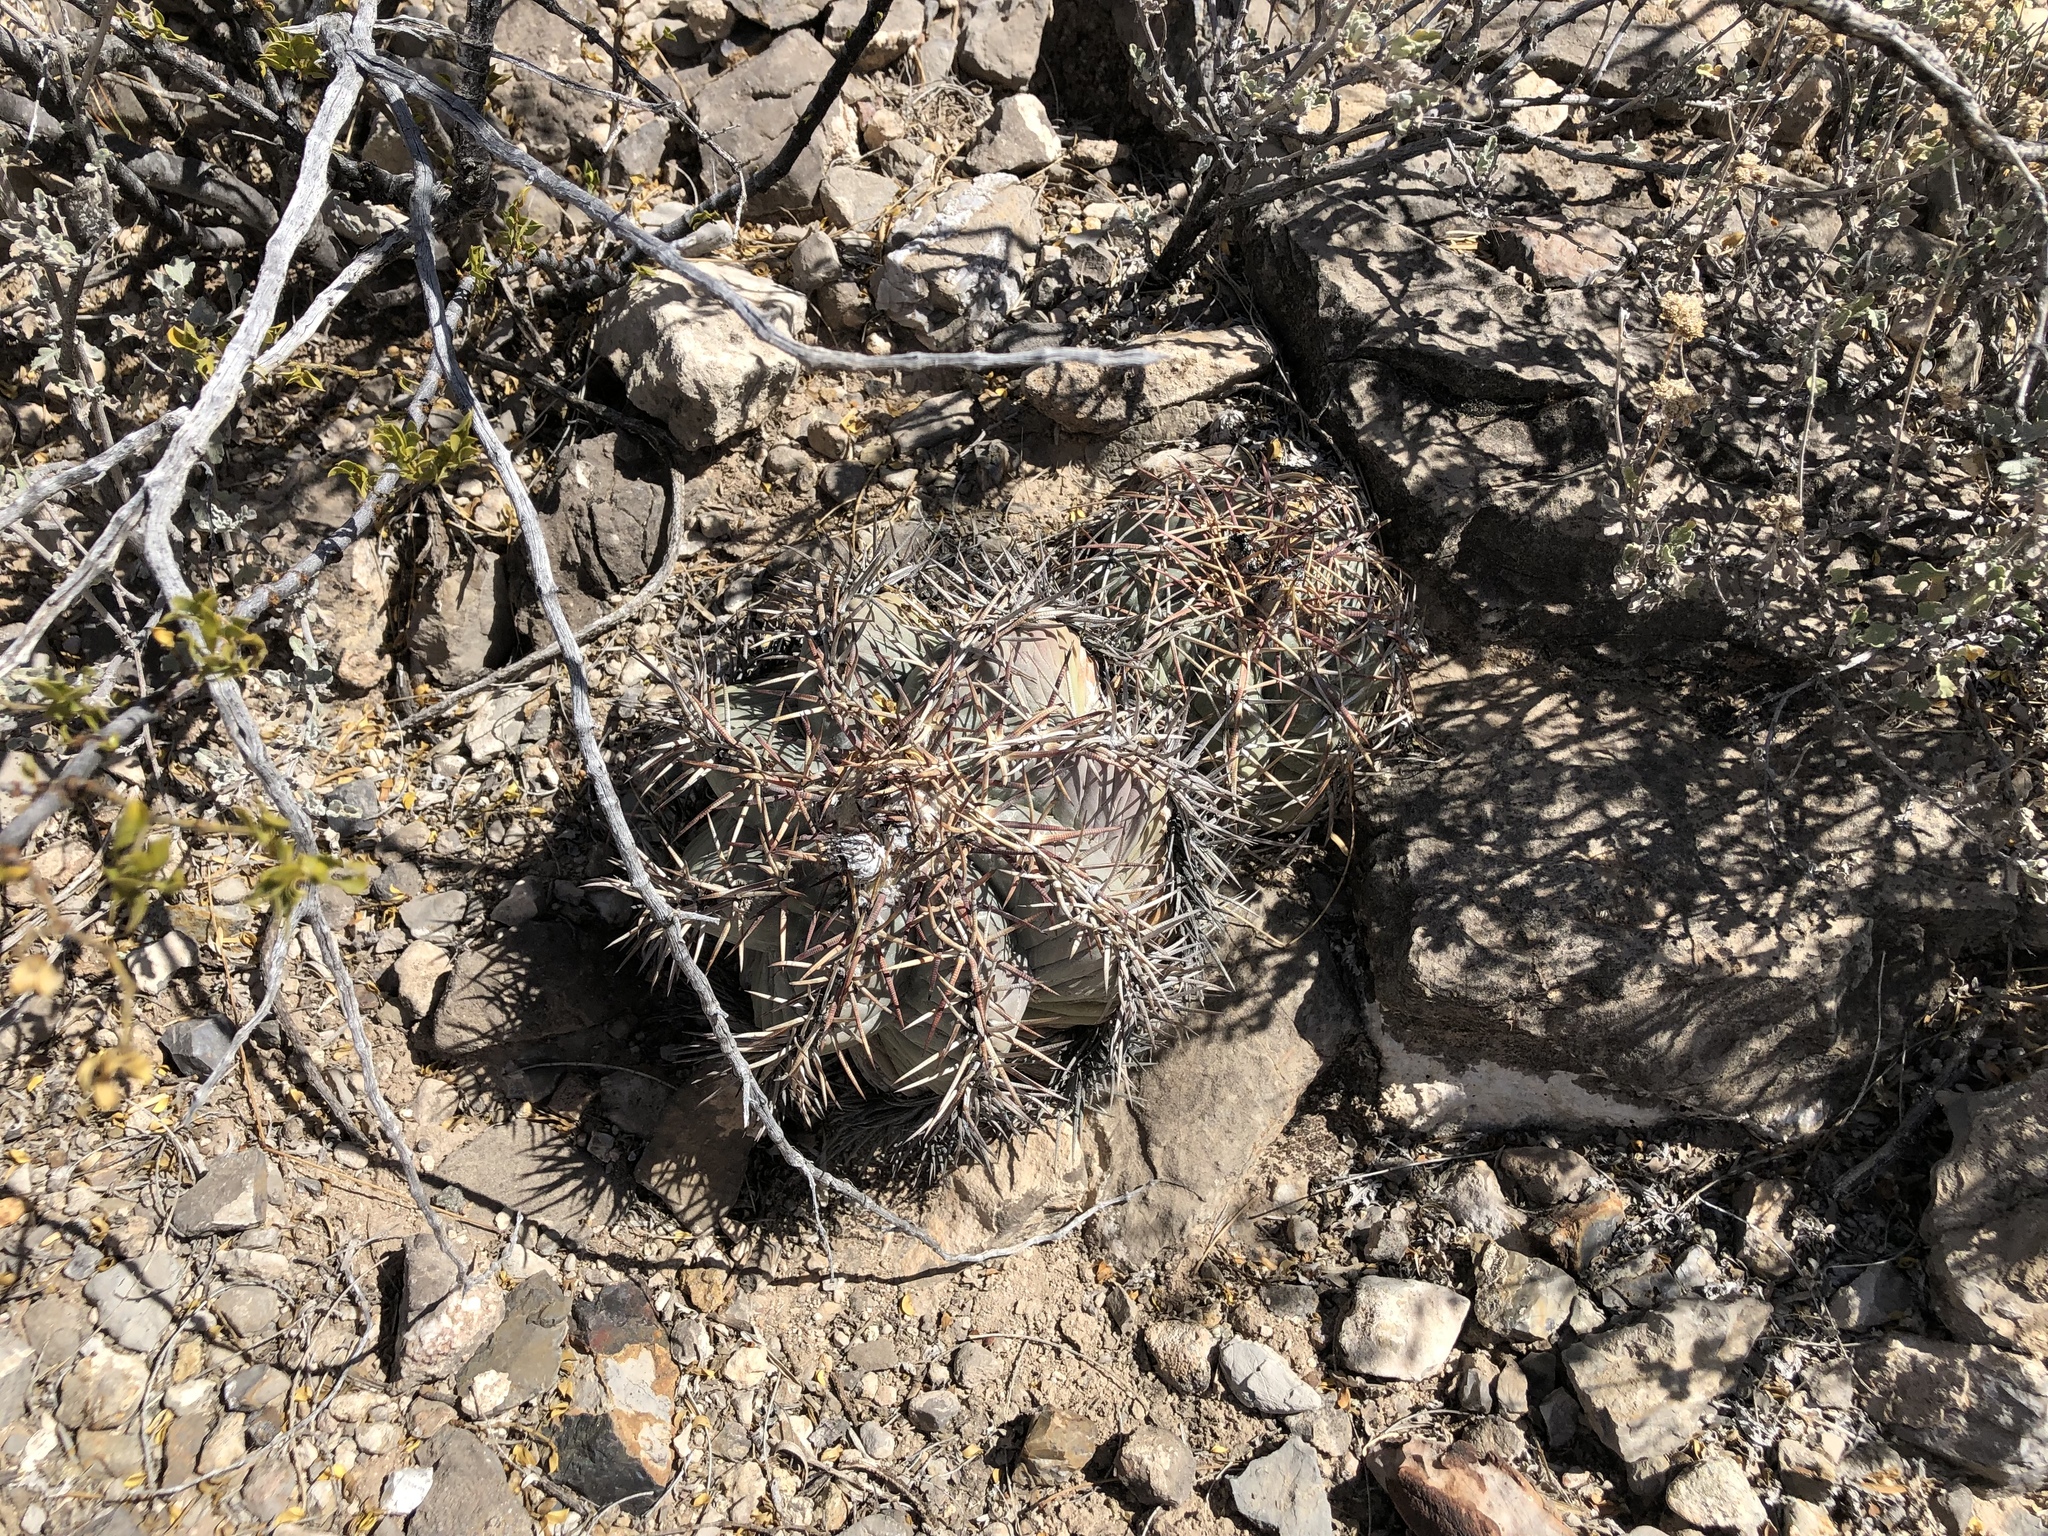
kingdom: Plantae
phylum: Tracheophyta
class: Magnoliopsida
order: Caryophyllales
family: Cactaceae
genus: Echinocactus
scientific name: Echinocactus horizonthalonius
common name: Devilshead
